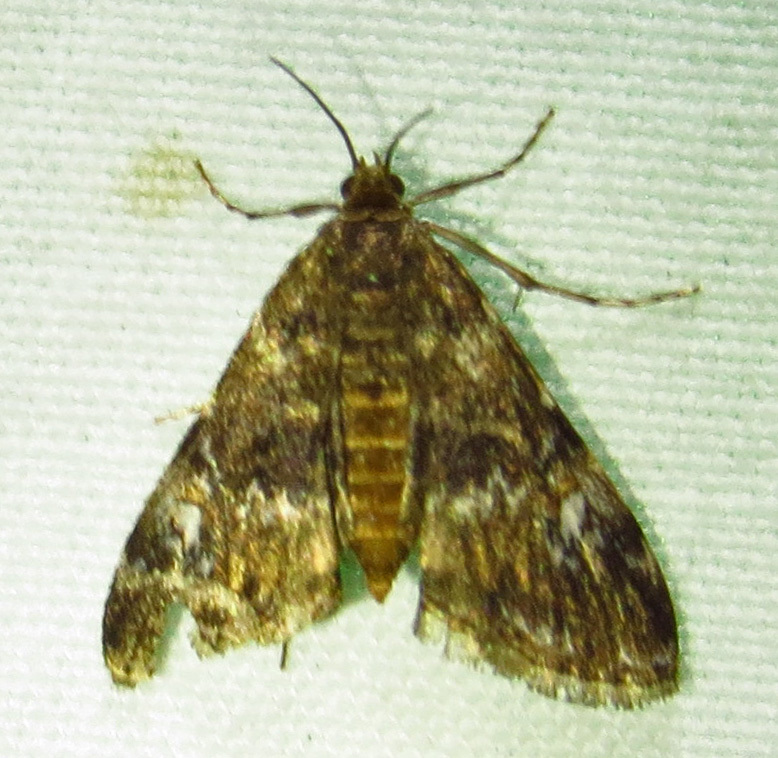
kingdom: Animalia
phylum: Arthropoda
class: Insecta
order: Lepidoptera
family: Crambidae
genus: Elophila
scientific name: Elophila obliteralis
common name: Waterlily leafcutter moth
